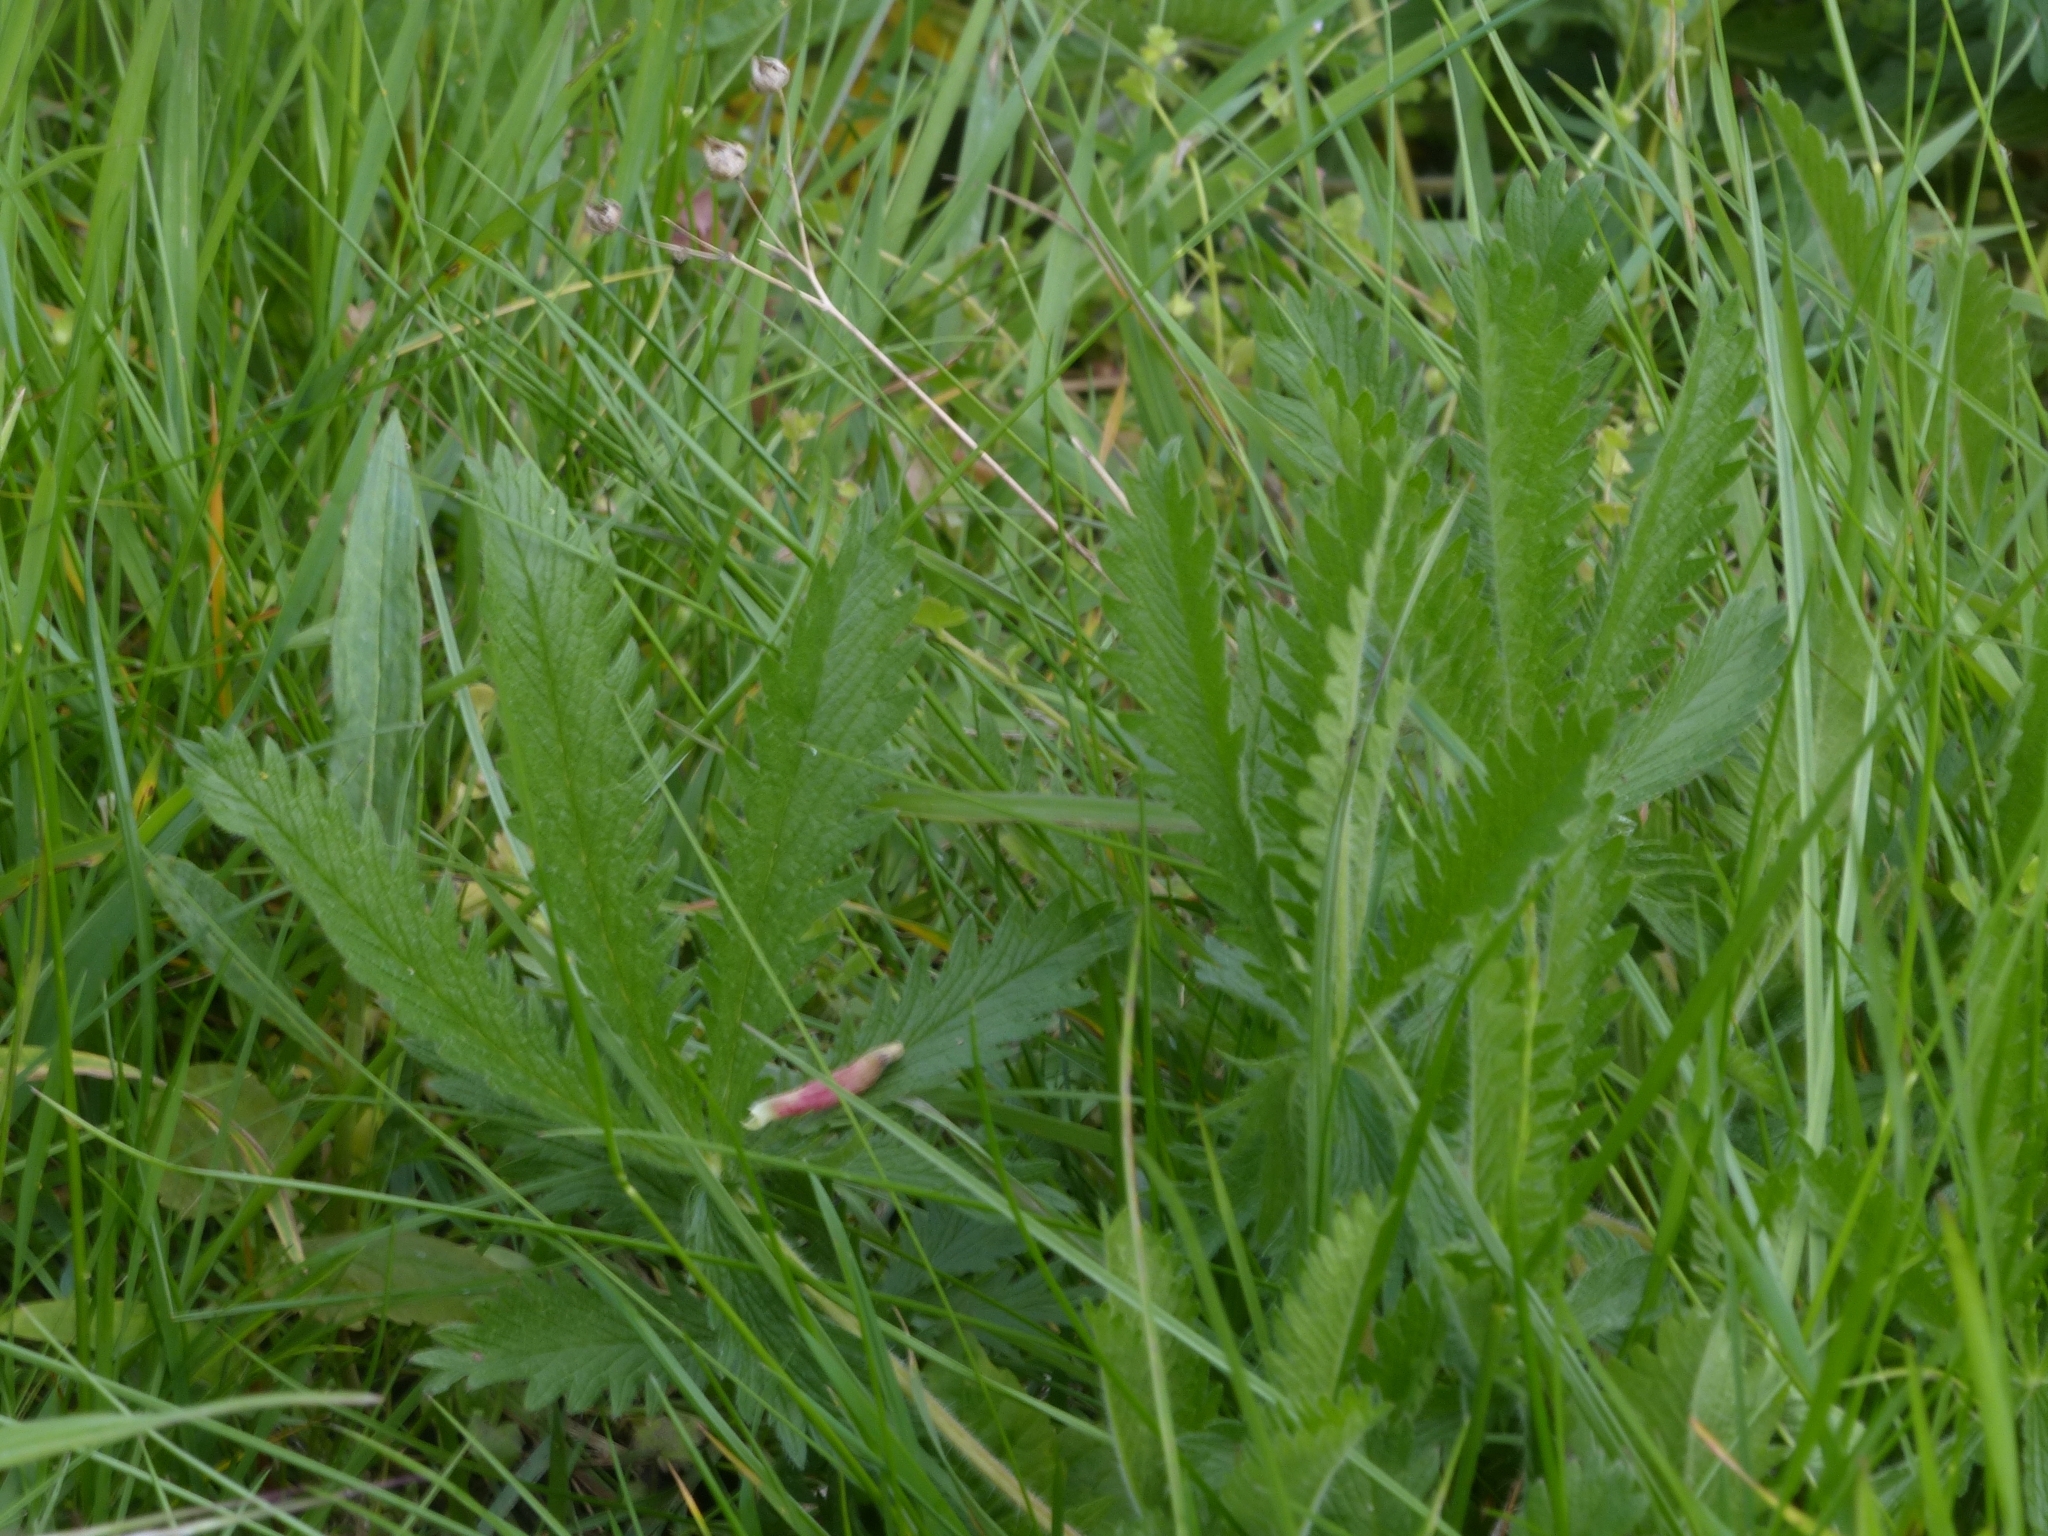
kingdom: Plantae
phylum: Tracheophyta
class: Magnoliopsida
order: Rosales
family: Rosaceae
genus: Potentilla
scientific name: Potentilla recta
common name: Sulphur cinquefoil
